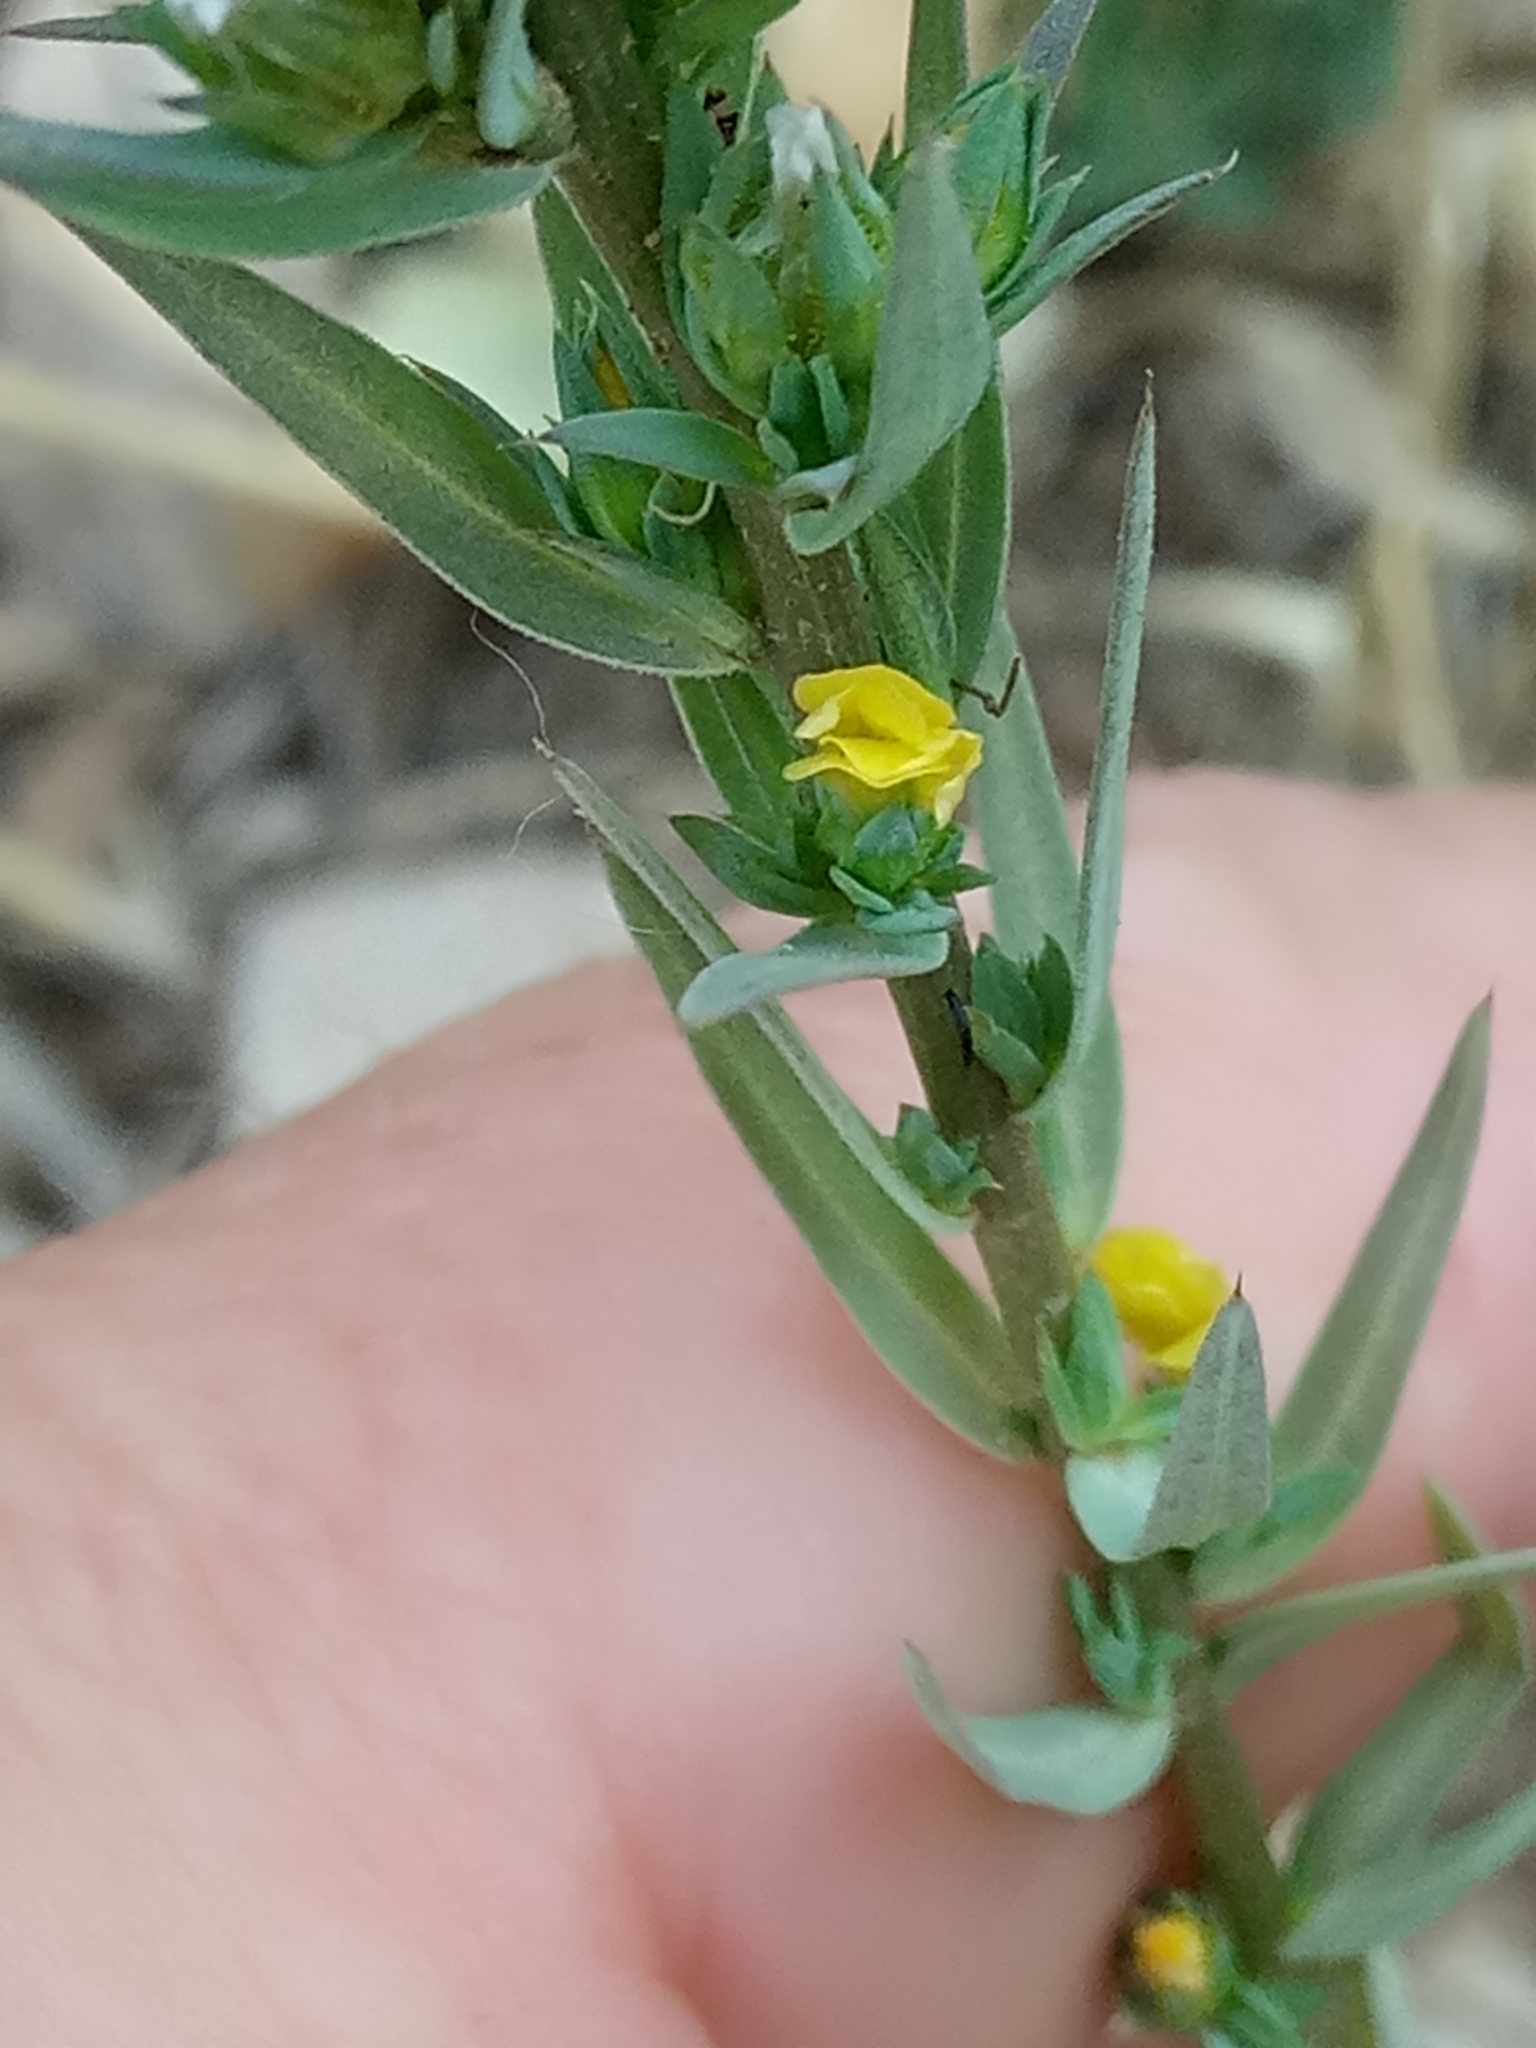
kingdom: Plantae
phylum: Tracheophyta
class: Magnoliopsida
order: Malpighiales
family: Linaceae
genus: Linum
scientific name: Linum strictum
